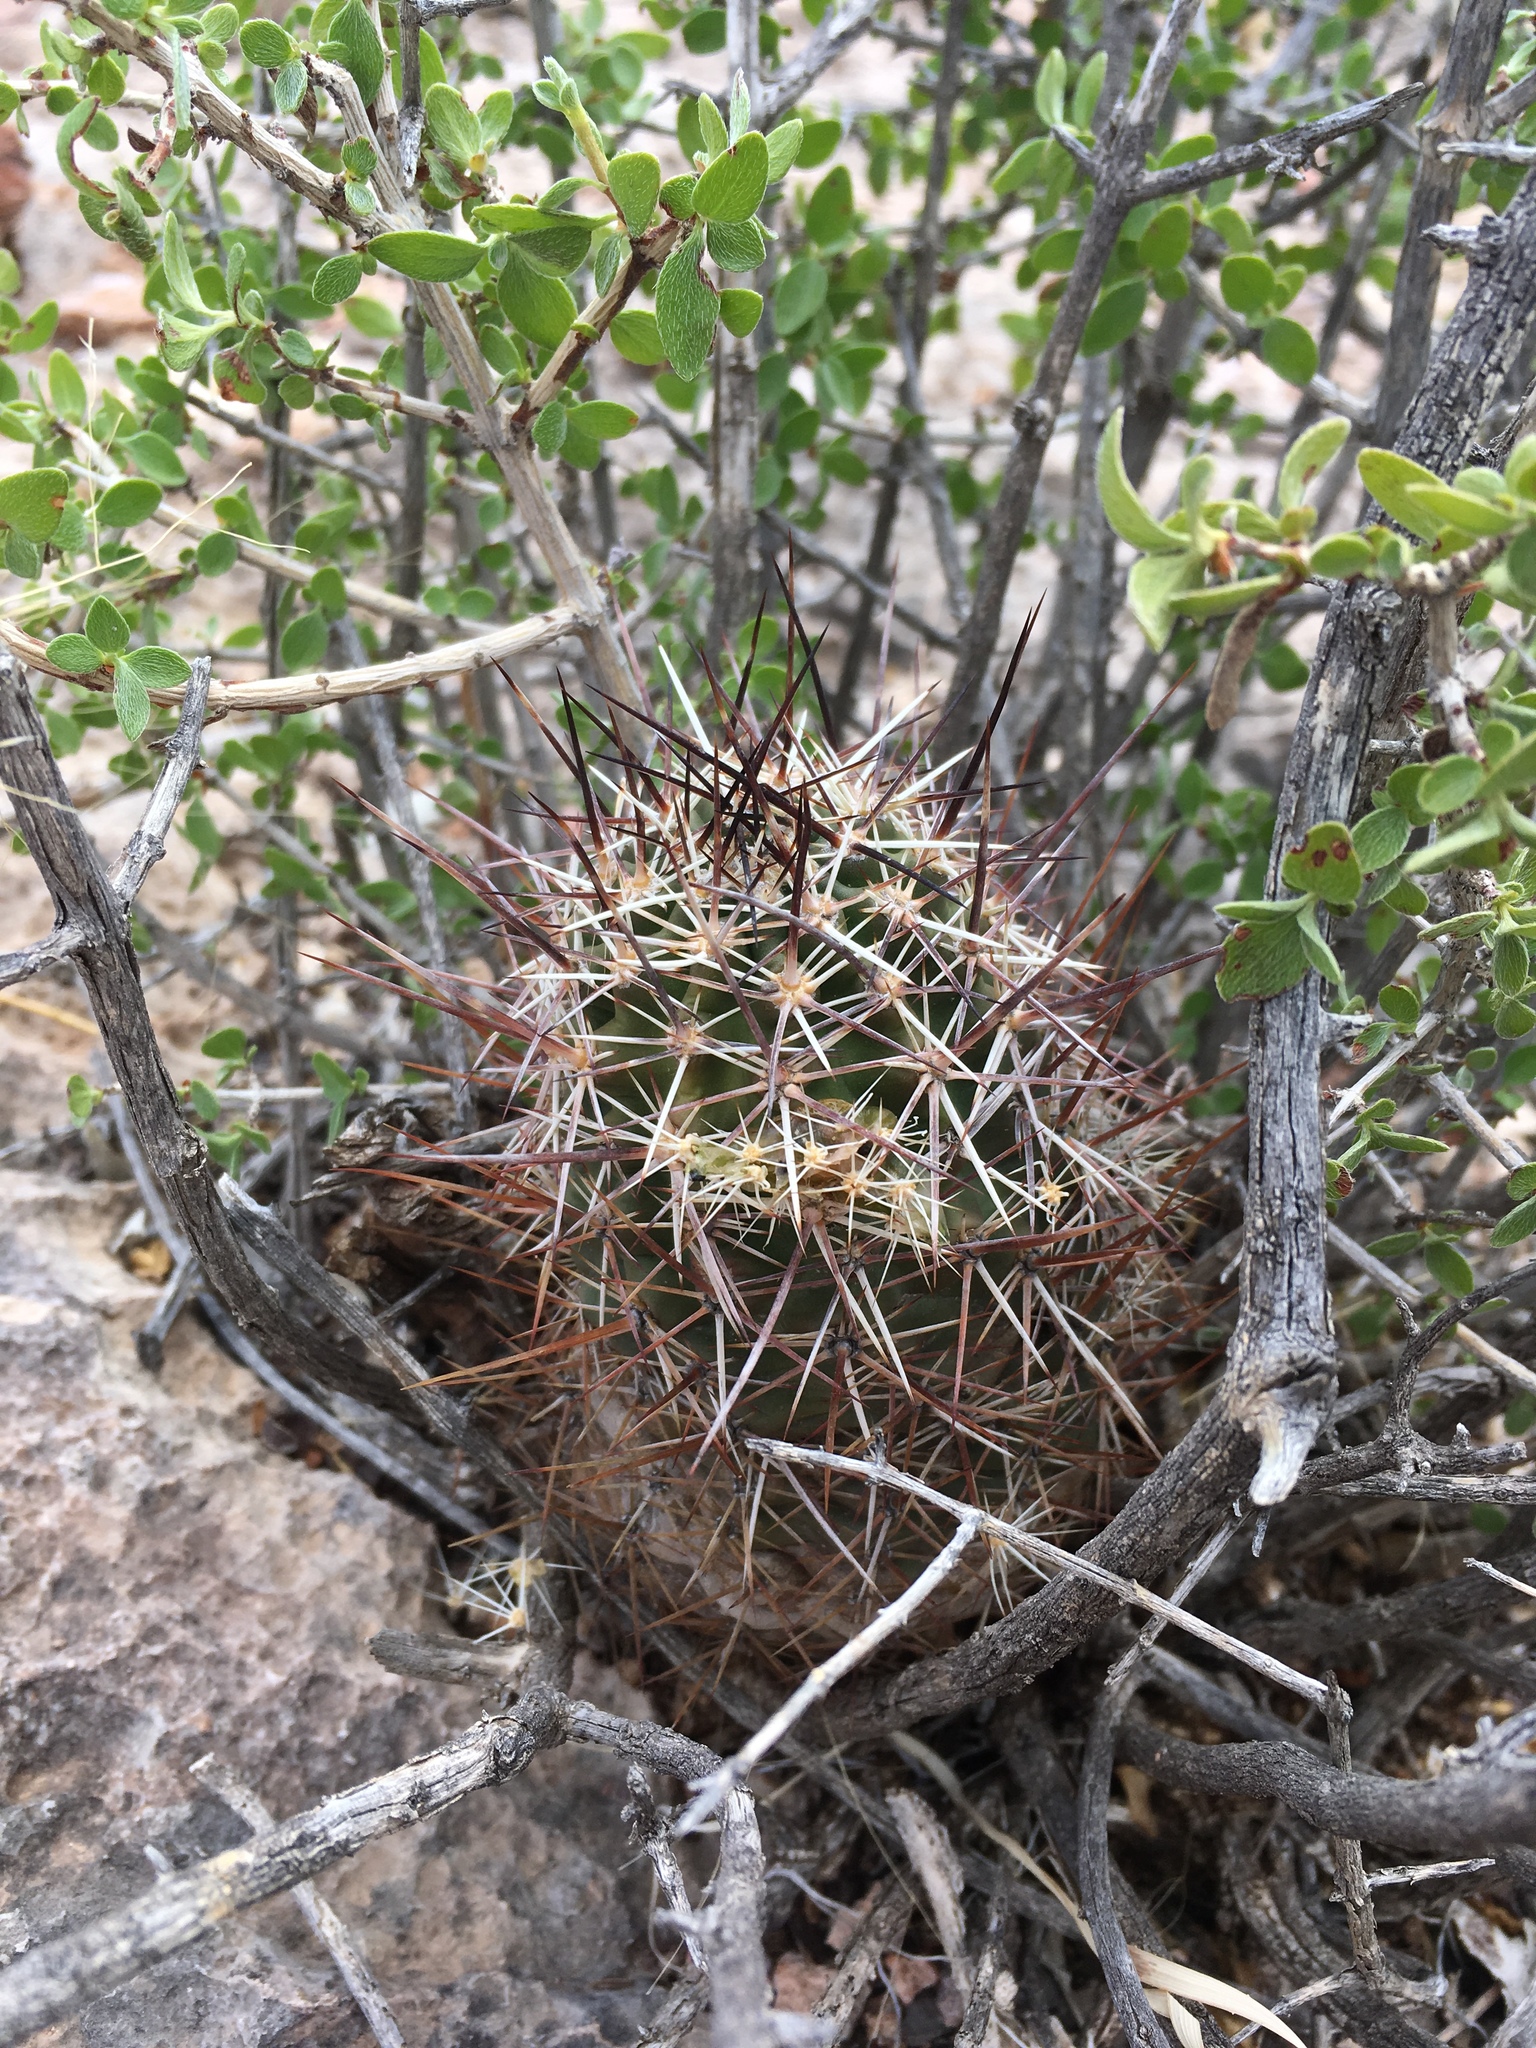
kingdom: Plantae
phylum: Tracheophyta
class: Magnoliopsida
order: Caryophyllales
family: Cactaceae
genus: Echinocereus
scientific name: Echinocereus fendleri
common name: Fendler's hedgehog cactus
